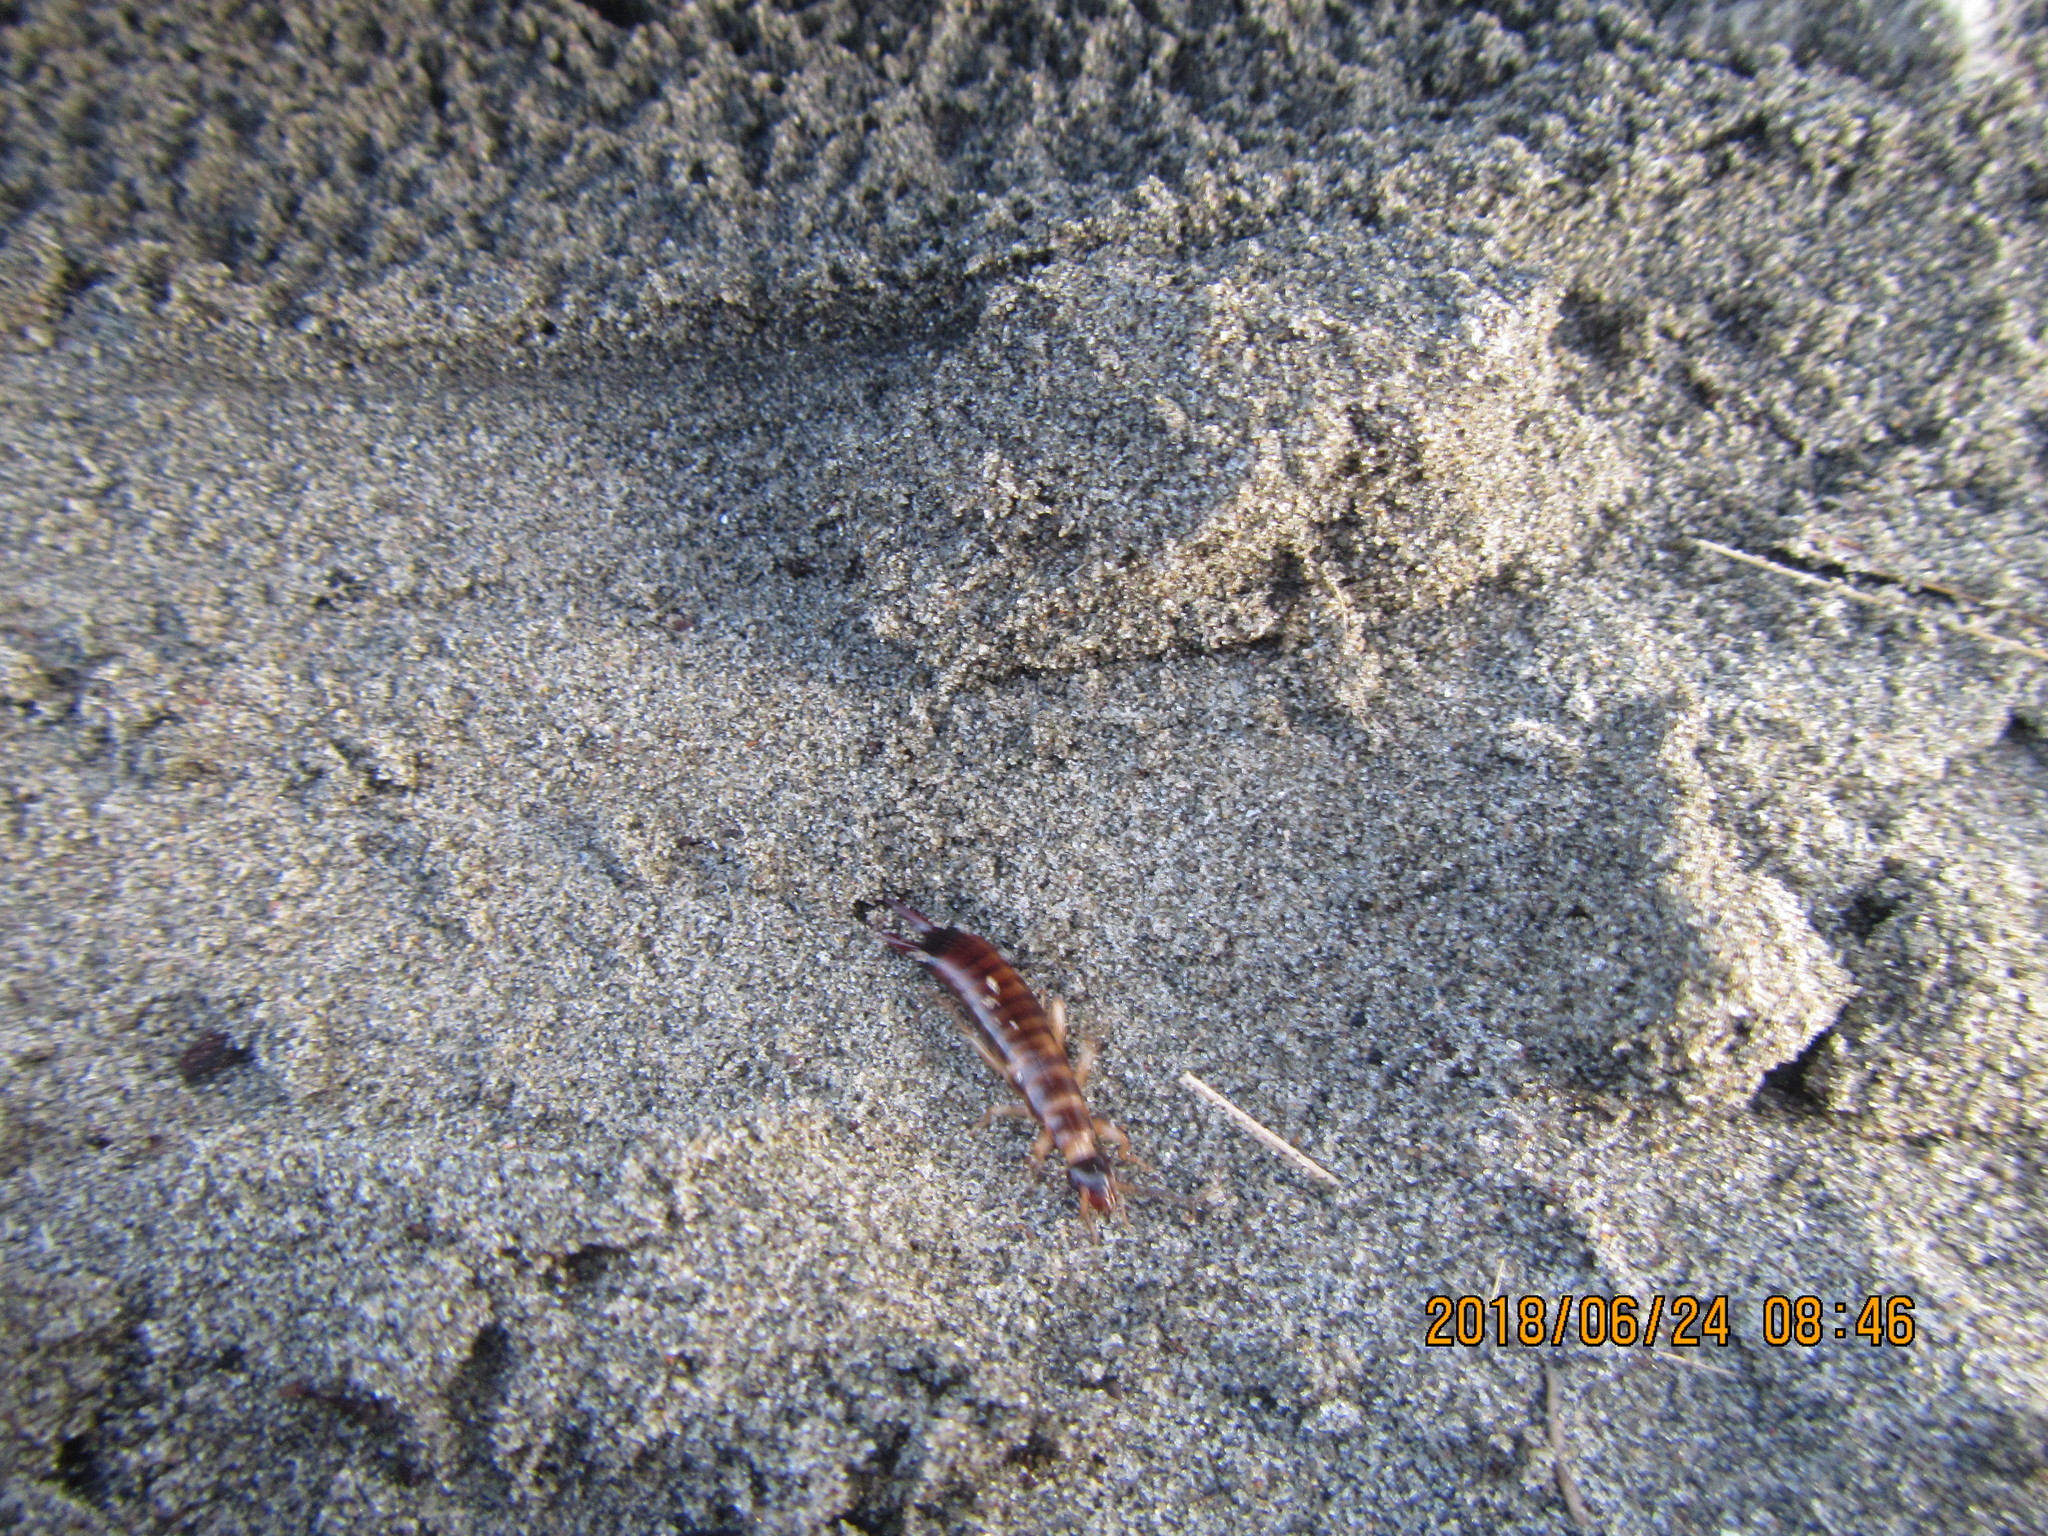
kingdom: Animalia
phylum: Arthropoda
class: Insecta
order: Dermaptera
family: Anisolabididae
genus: Anisolabis
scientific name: Anisolabis littorea
